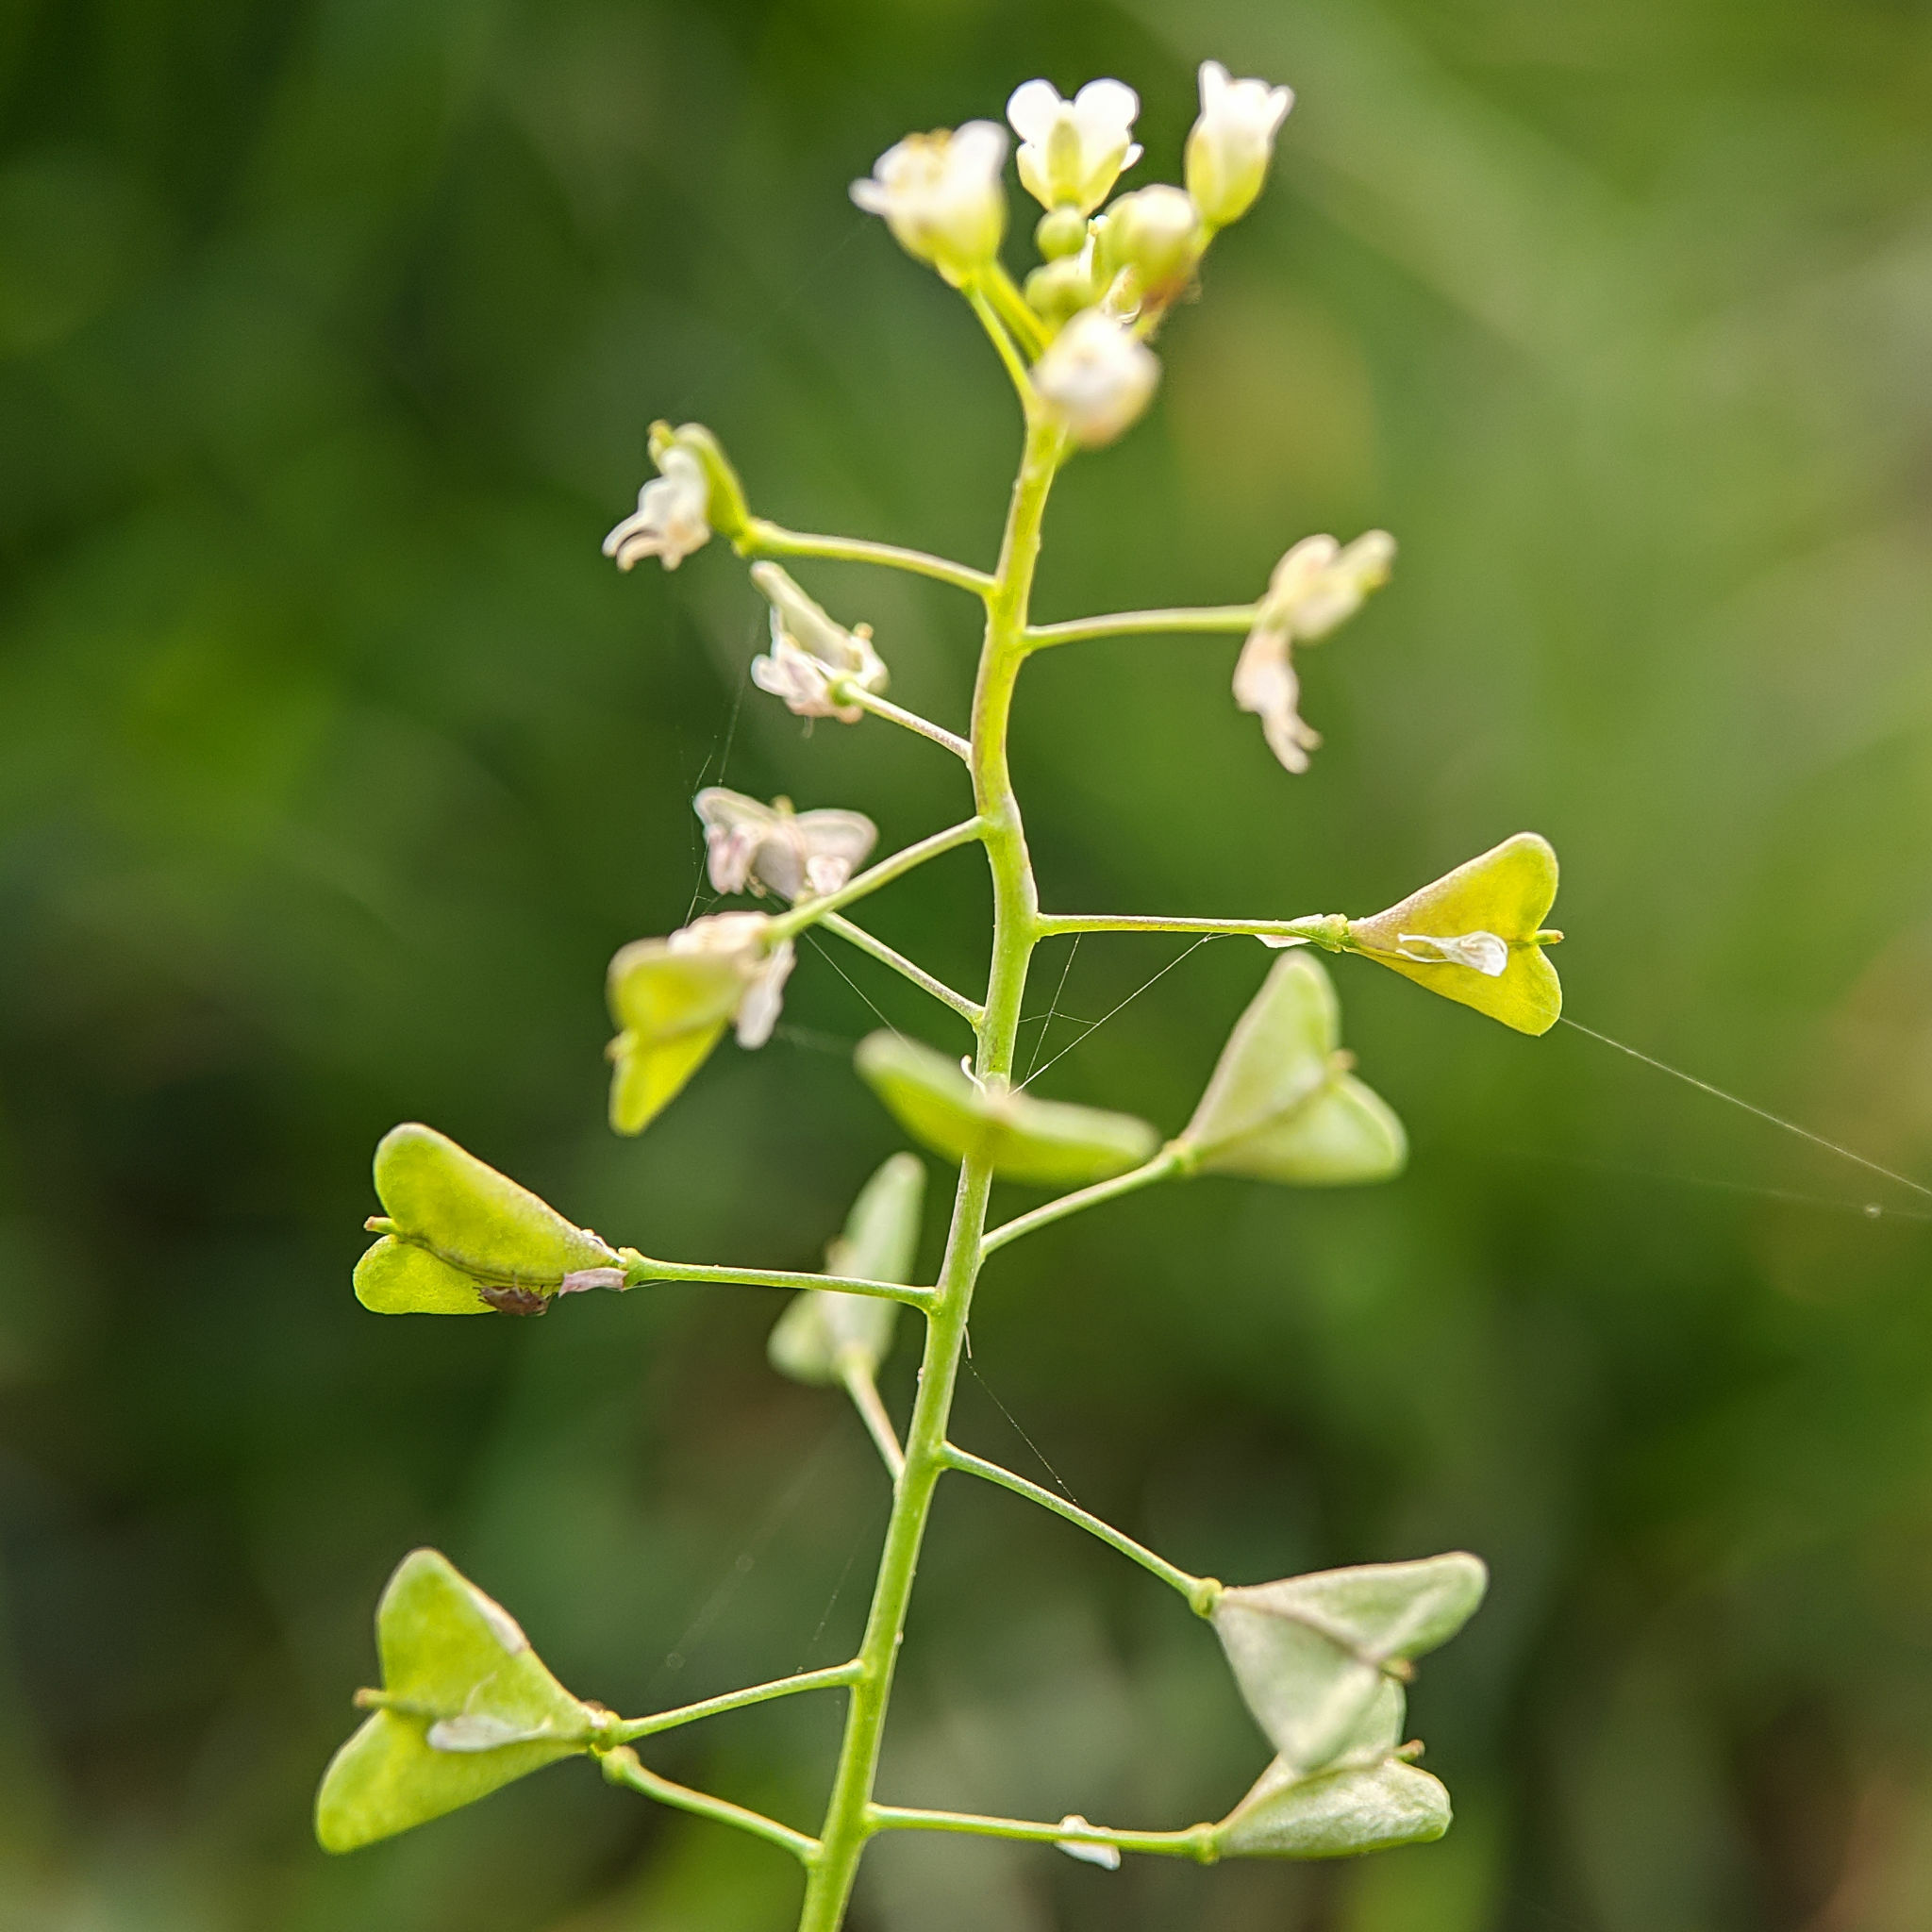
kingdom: Plantae
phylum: Tracheophyta
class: Magnoliopsida
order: Brassicales
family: Brassicaceae
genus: Capsella
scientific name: Capsella bursa-pastoris
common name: Shepherd's purse
